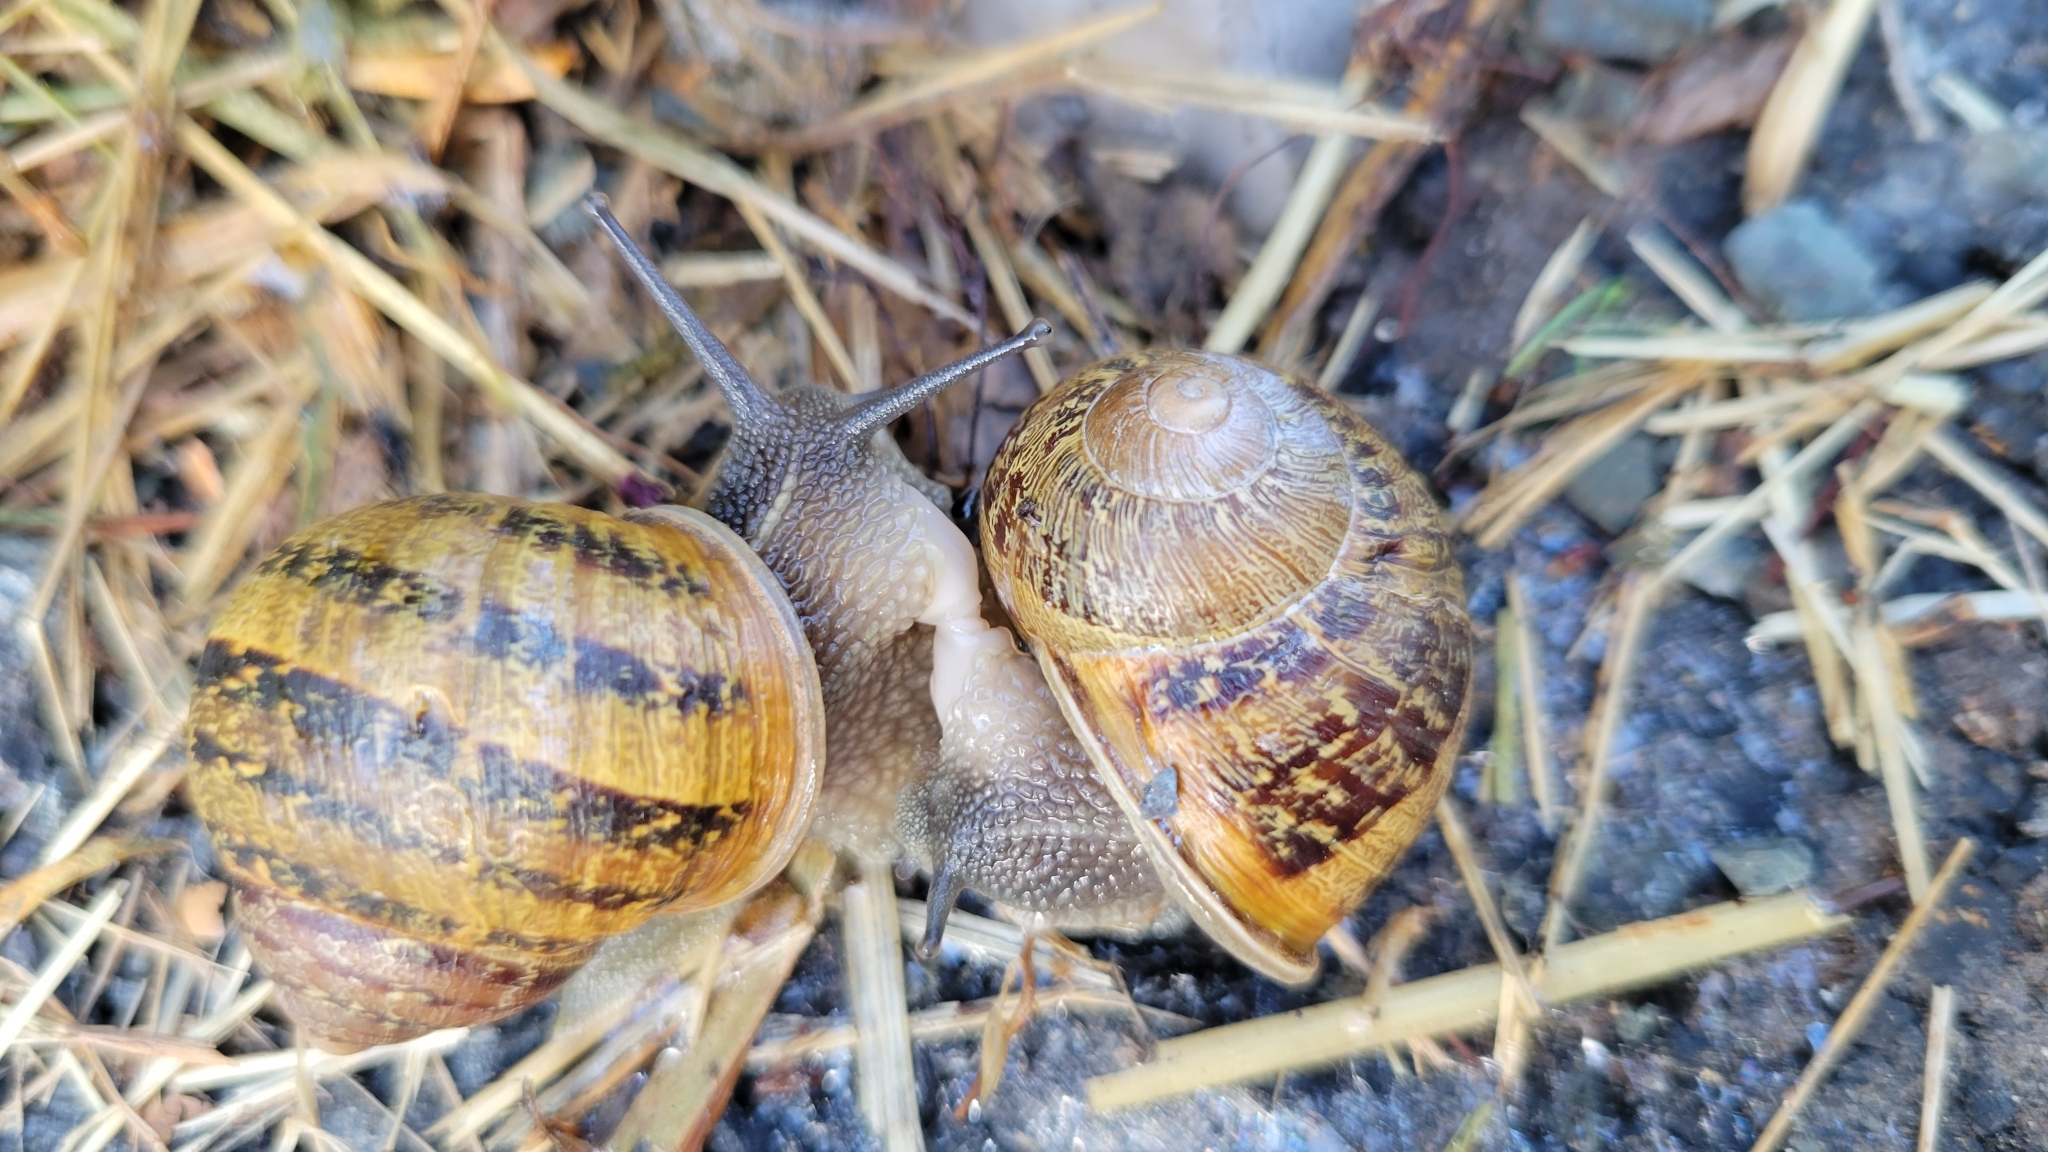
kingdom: Animalia
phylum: Mollusca
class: Gastropoda
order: Stylommatophora
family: Helicidae
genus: Cornu
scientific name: Cornu aspersum
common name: Brown garden snail
